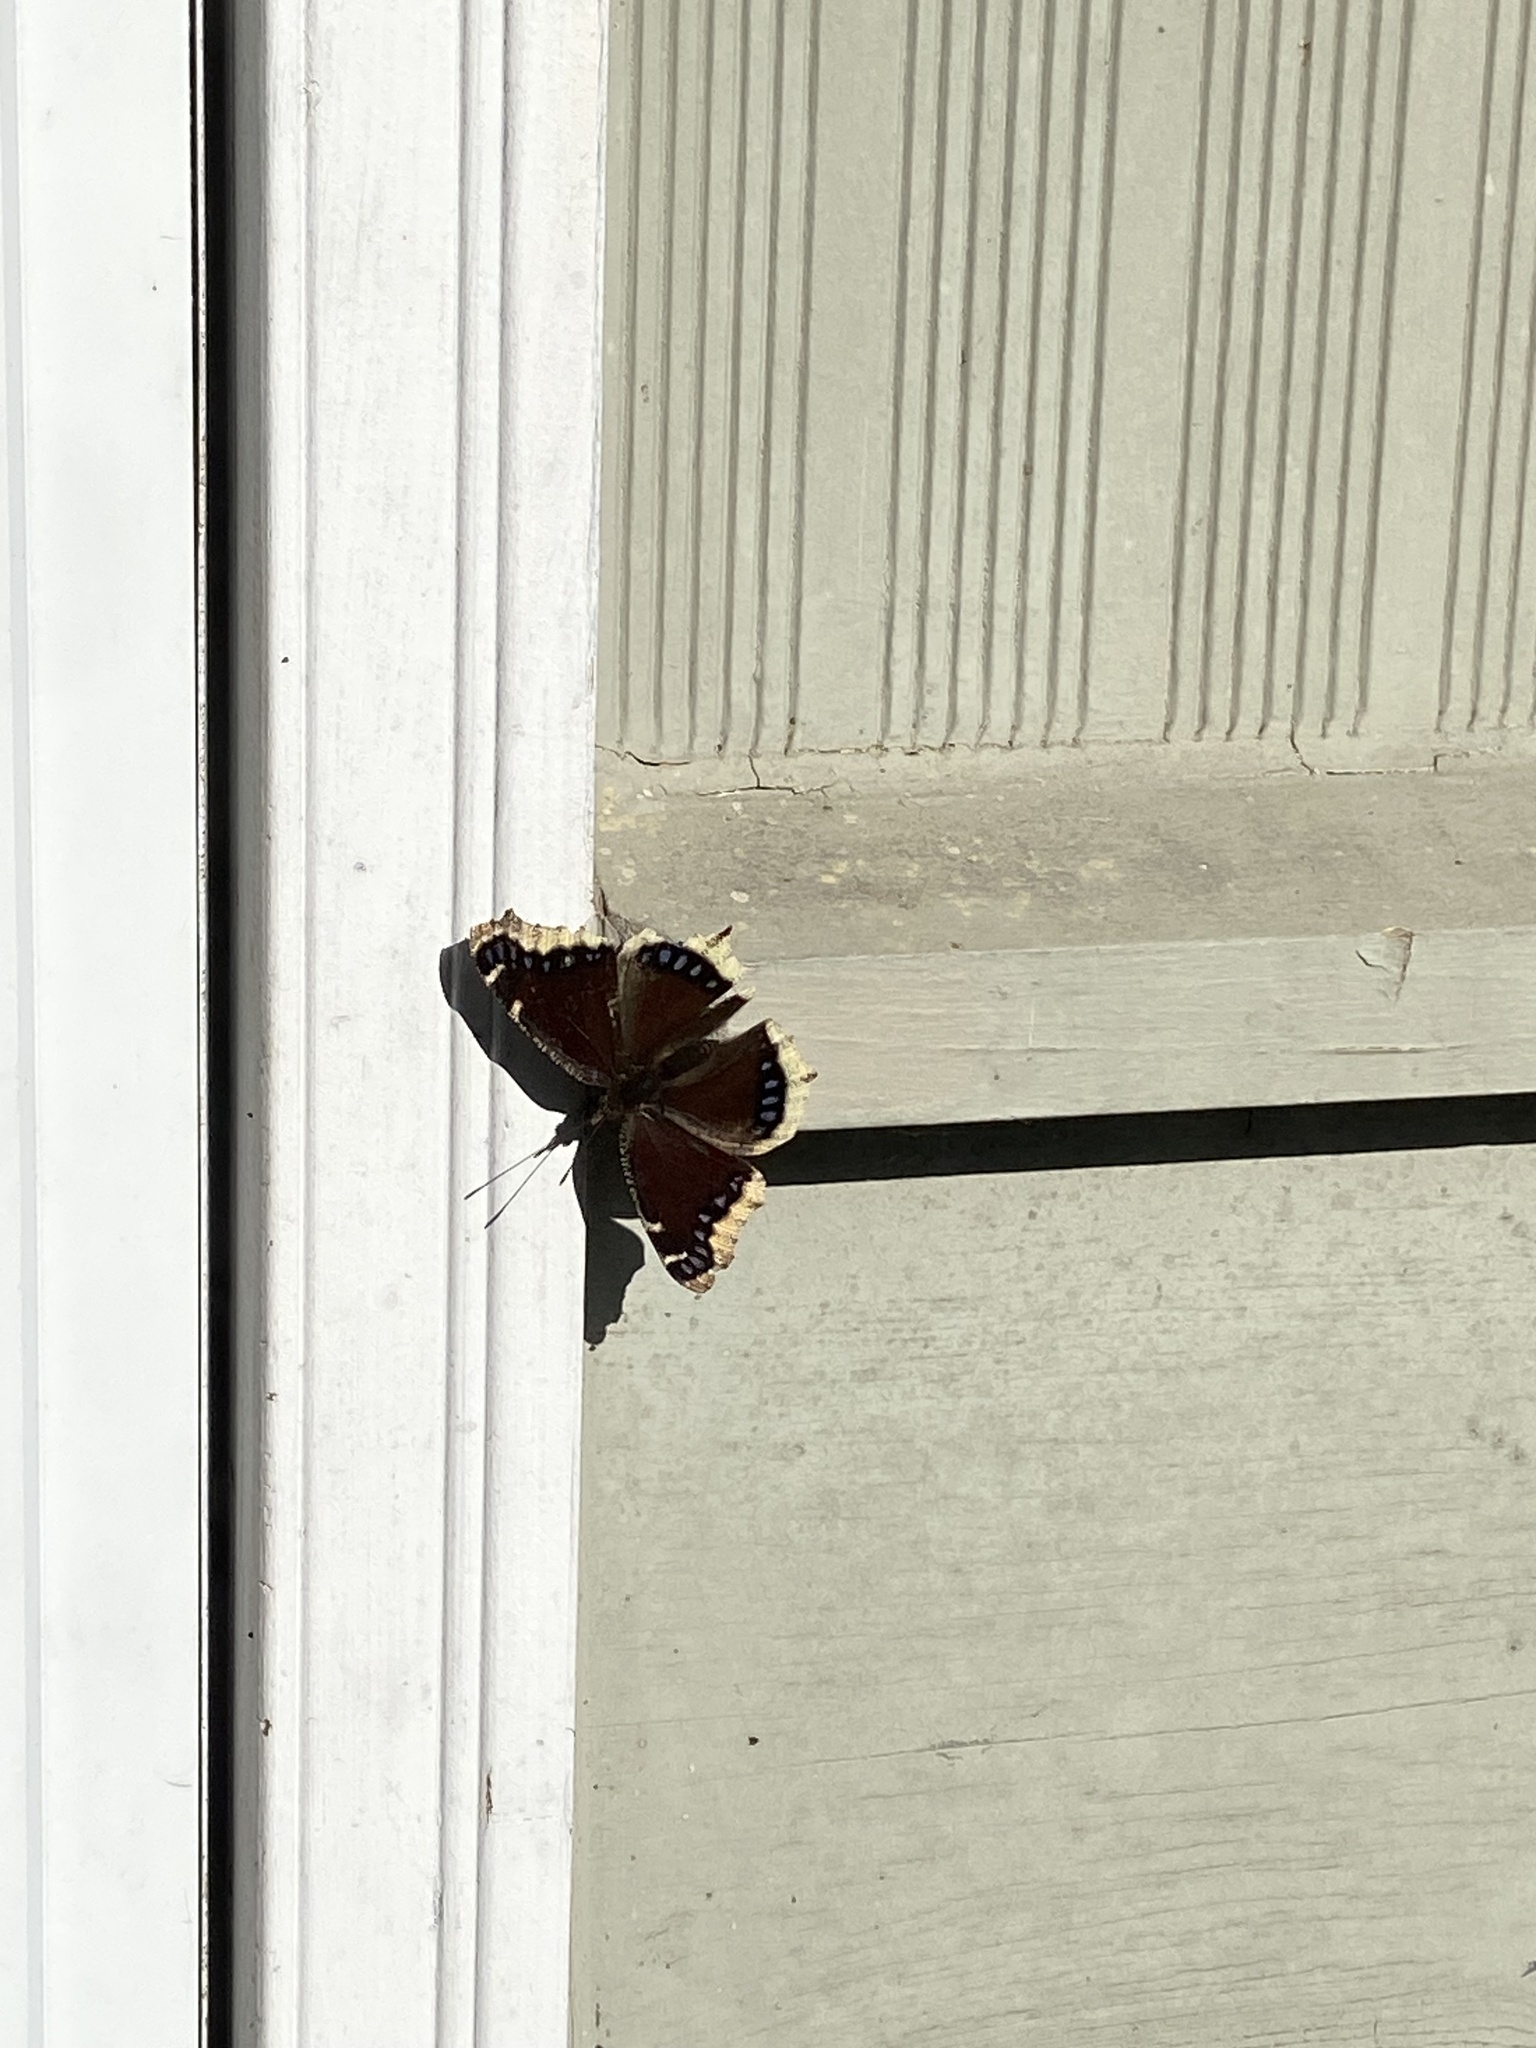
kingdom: Animalia
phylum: Arthropoda
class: Insecta
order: Lepidoptera
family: Nymphalidae
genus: Nymphalis
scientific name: Nymphalis antiopa
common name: Camberwell beauty
